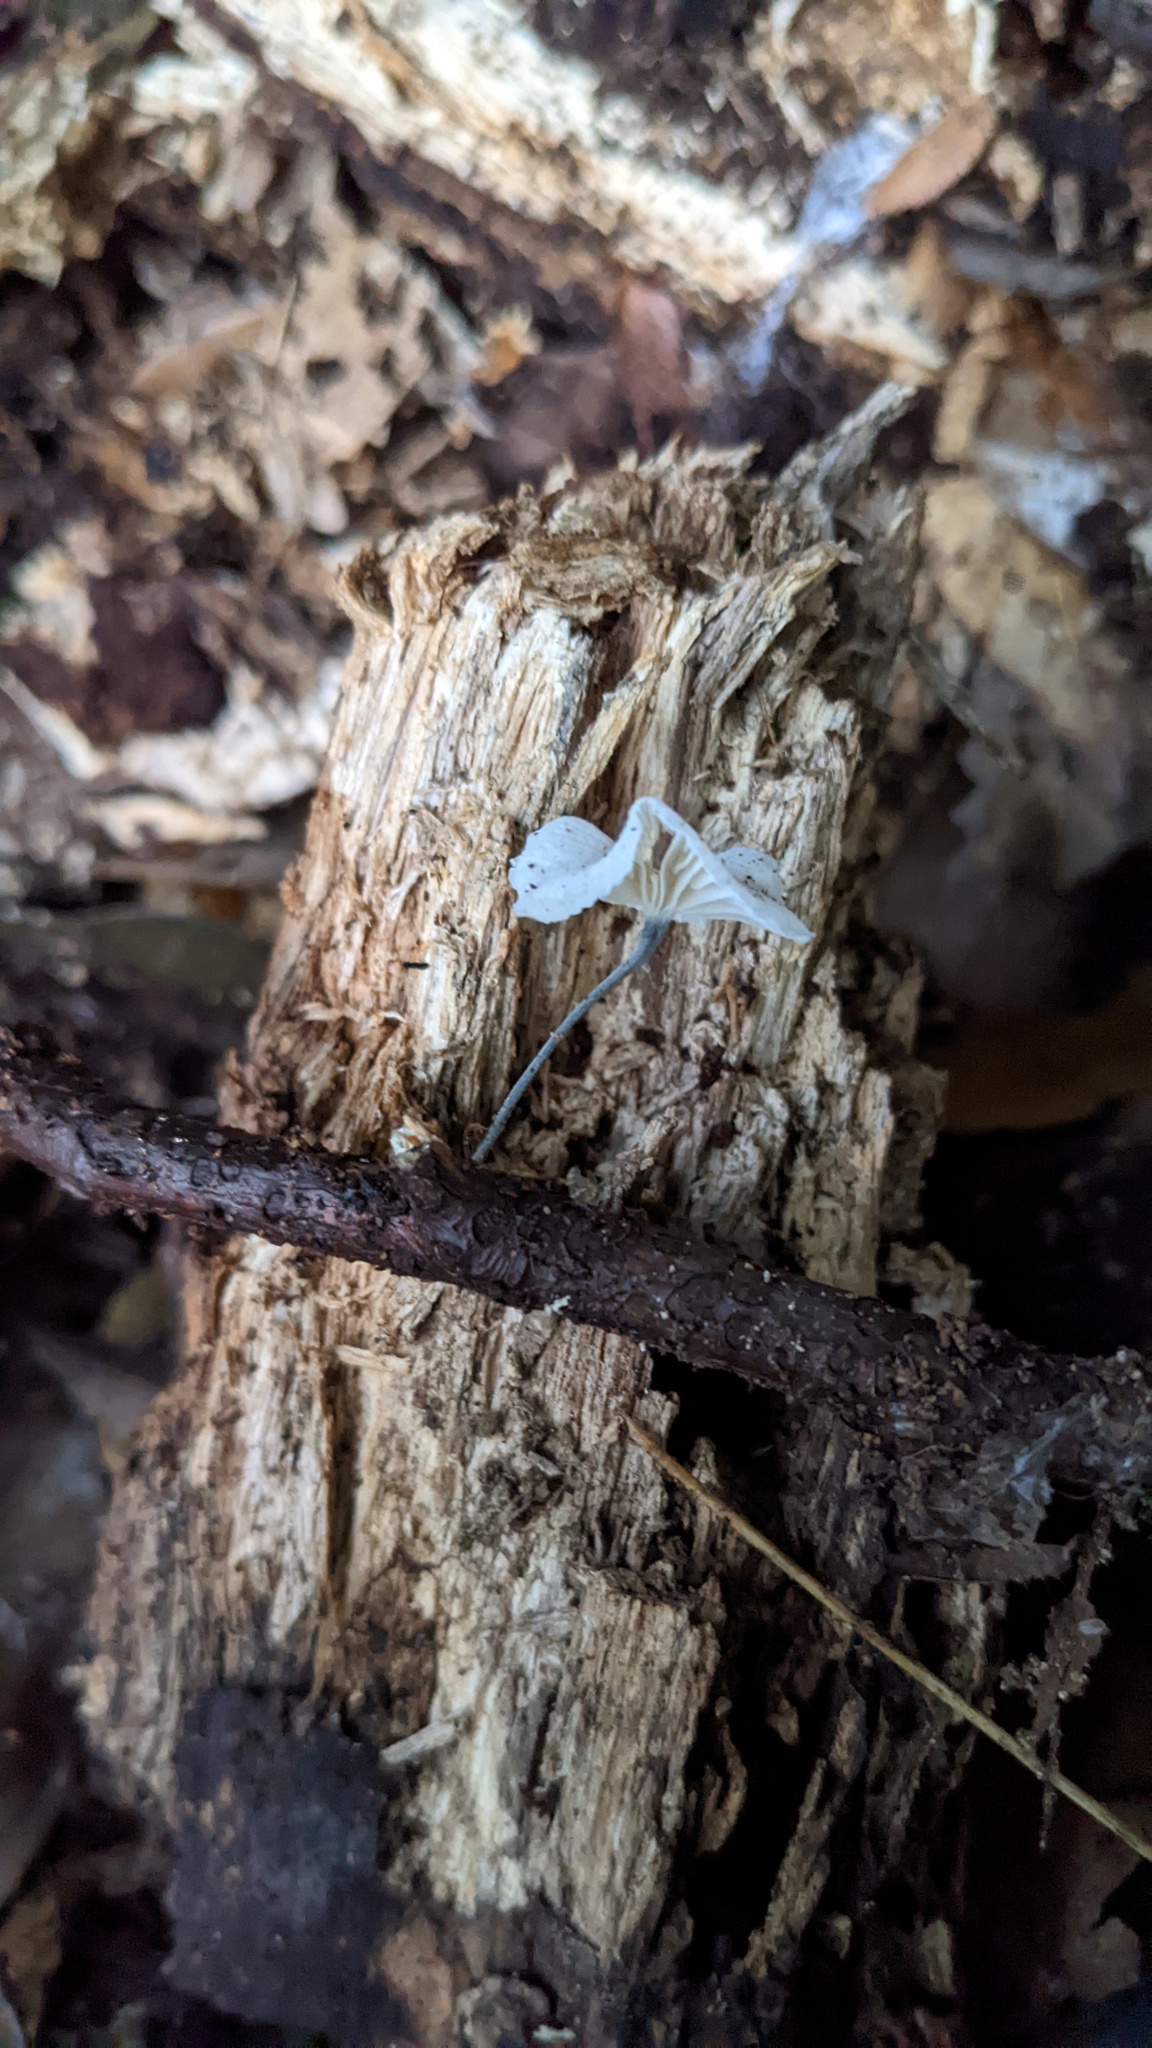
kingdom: Fungi
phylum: Basidiomycota
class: Agaricomycetes
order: Agaricales
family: Marasmiaceae
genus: Tetrapyrgos
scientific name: Tetrapyrgos nigripes
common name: Black-stalked marasmius
